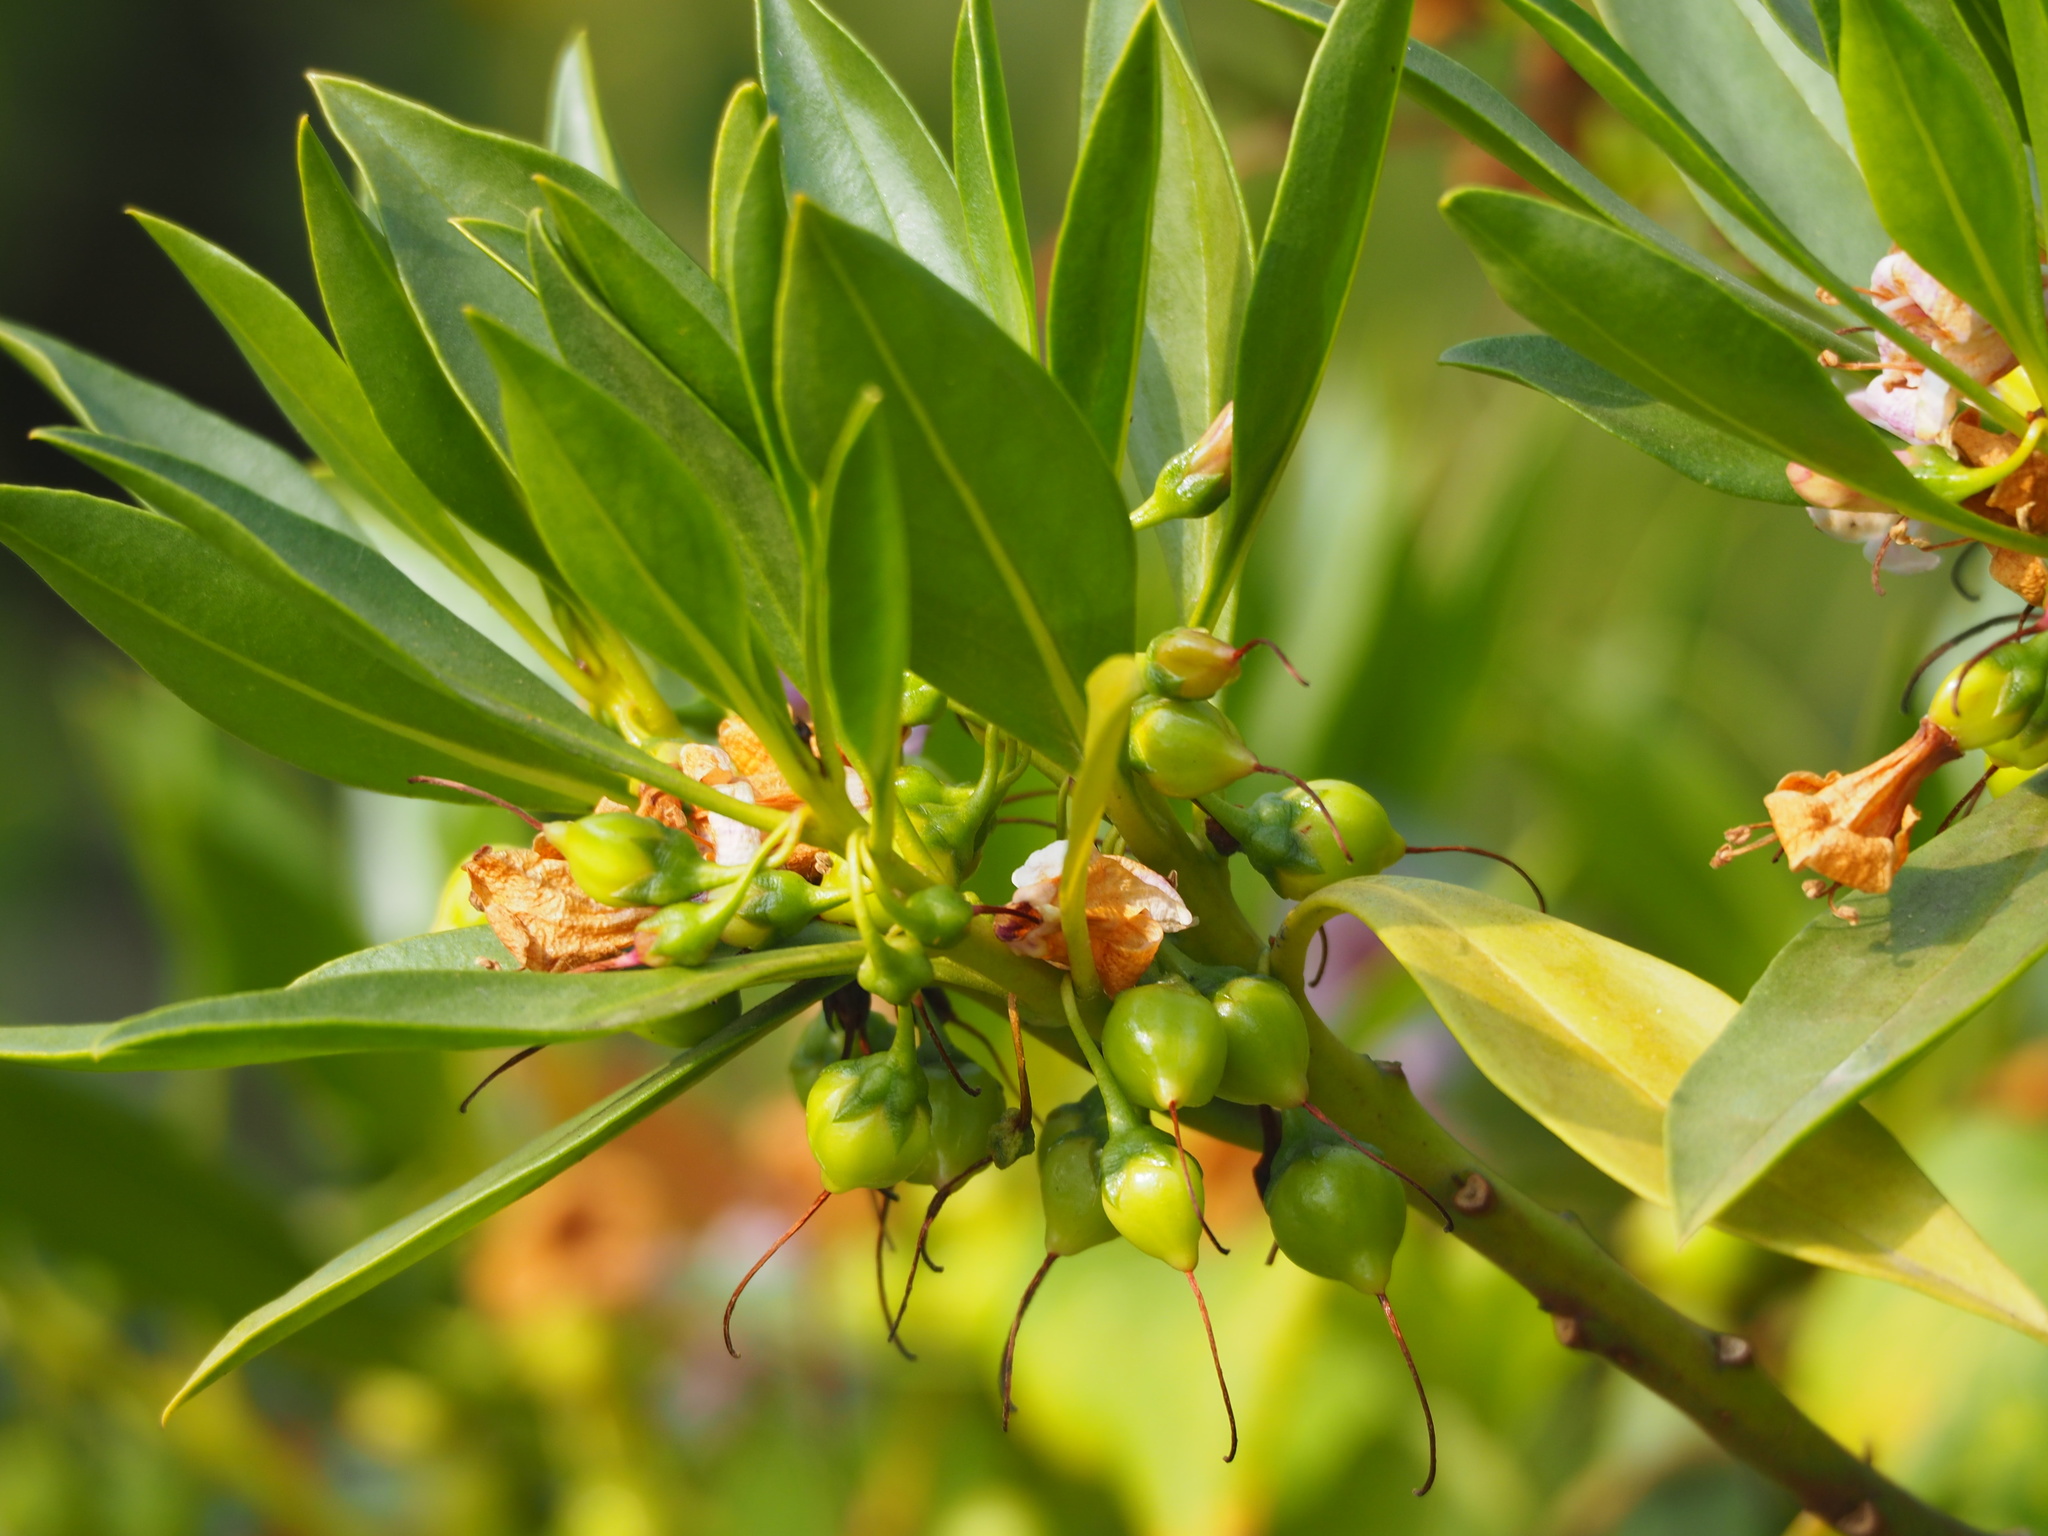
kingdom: Plantae
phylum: Tracheophyta
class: Magnoliopsida
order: Lamiales
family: Scrophulariaceae
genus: Myoporum
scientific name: Myoporum bontioides
